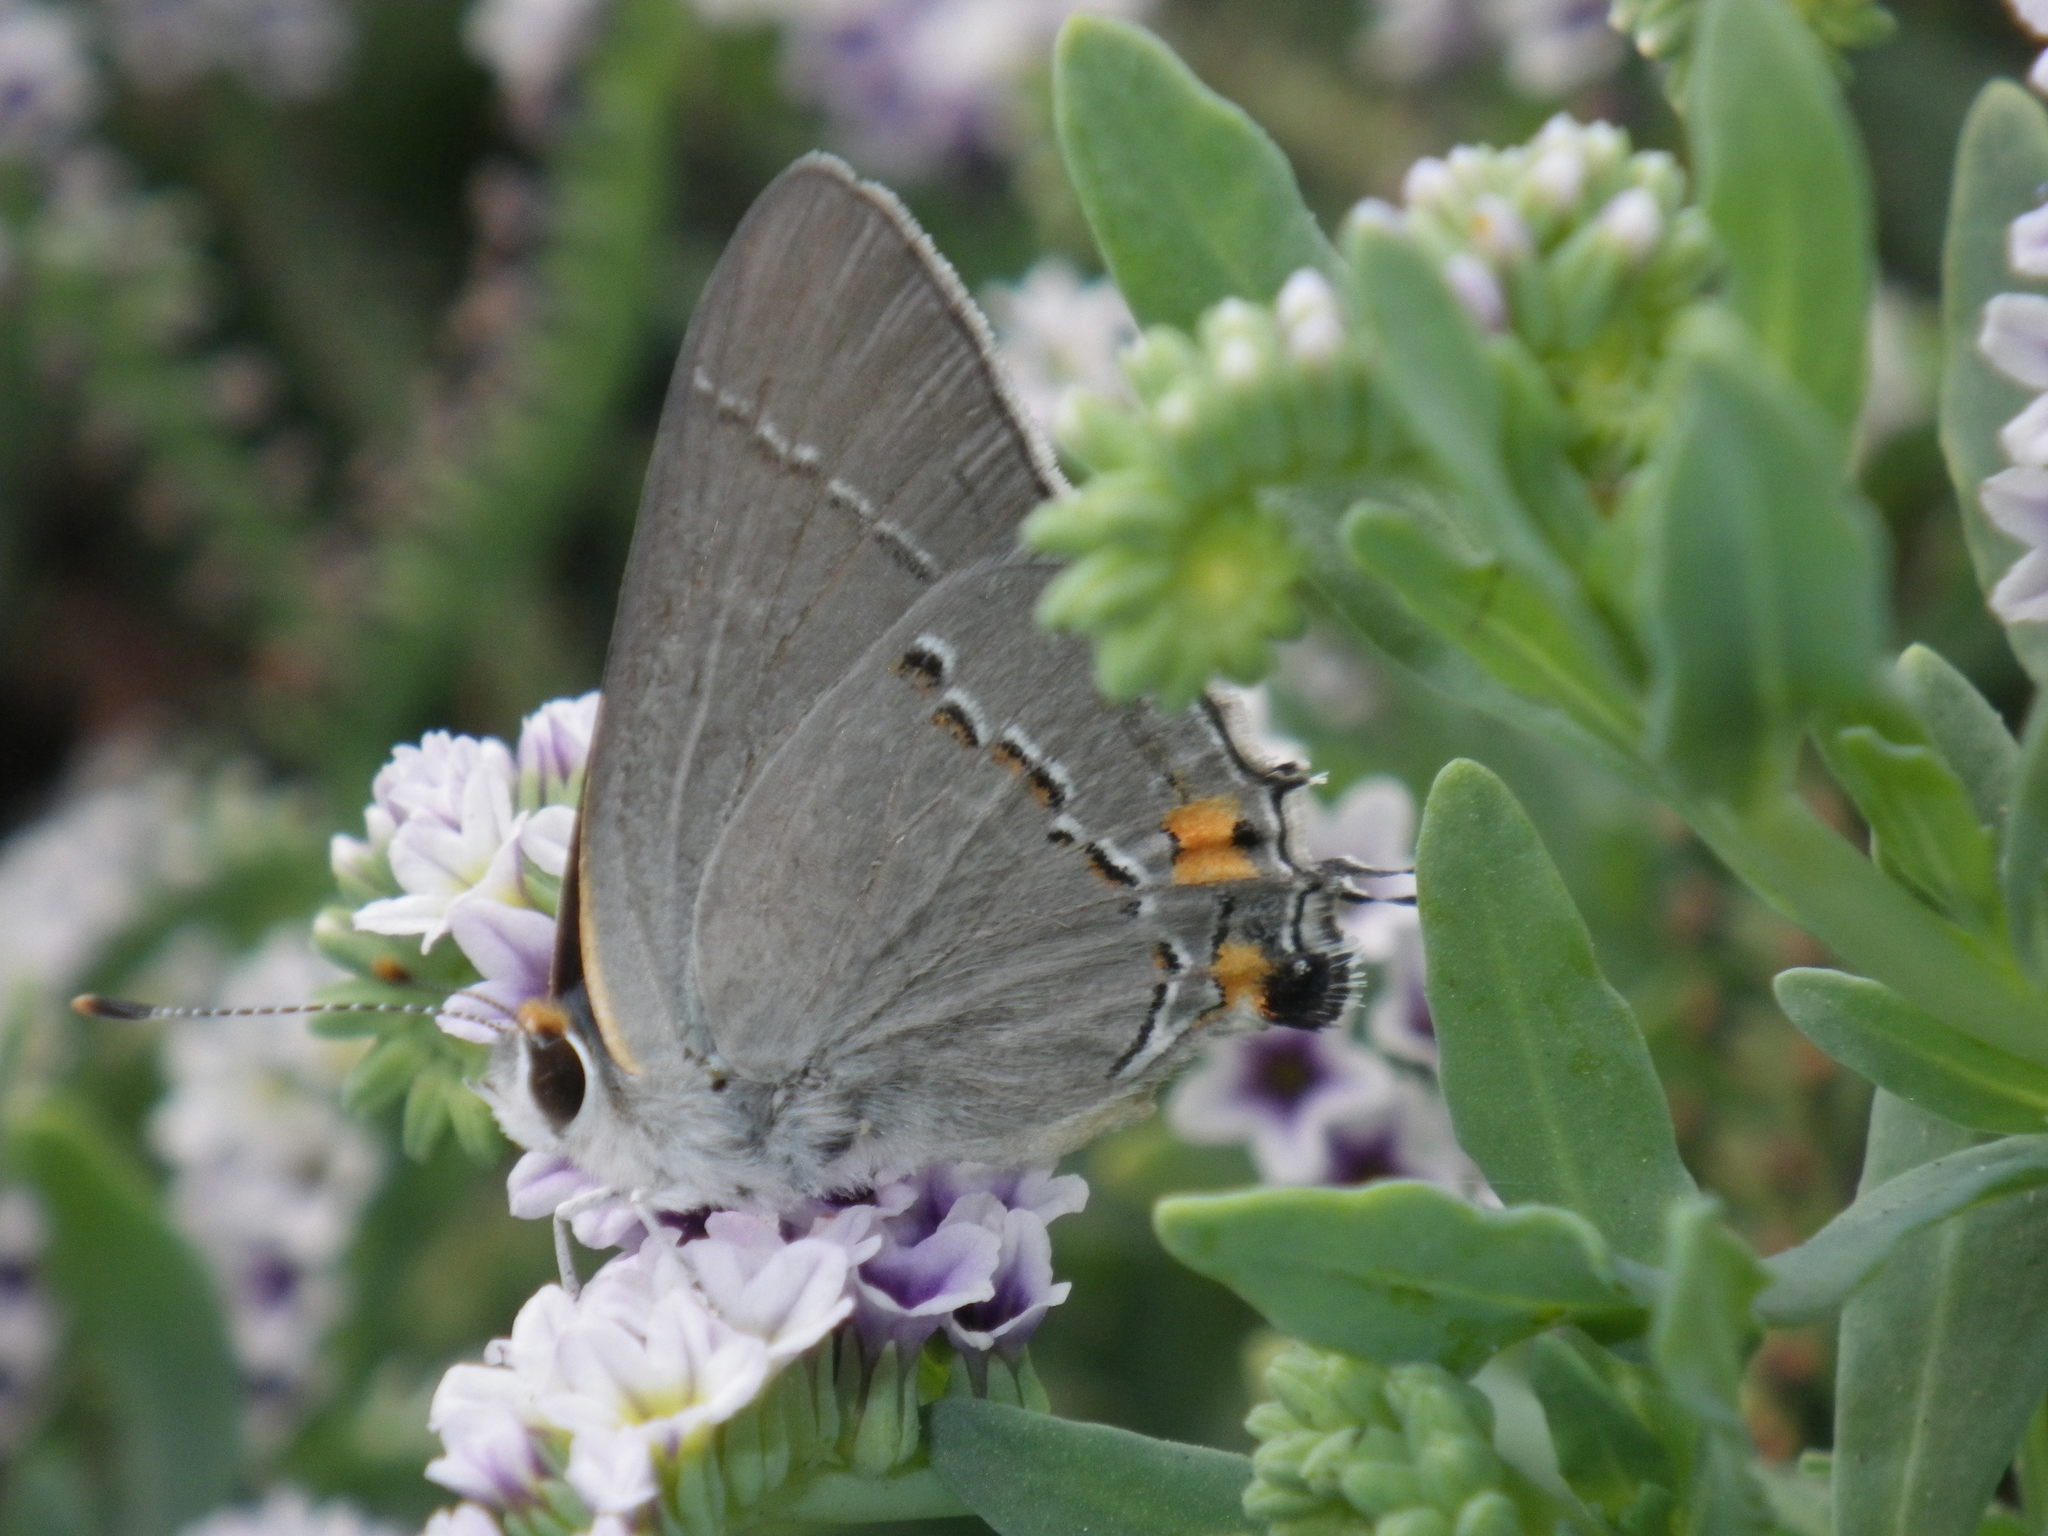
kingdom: Animalia
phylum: Arthropoda
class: Insecta
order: Lepidoptera
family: Lycaenidae
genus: Strymon
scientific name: Strymon melinus
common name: Gray hairstreak
